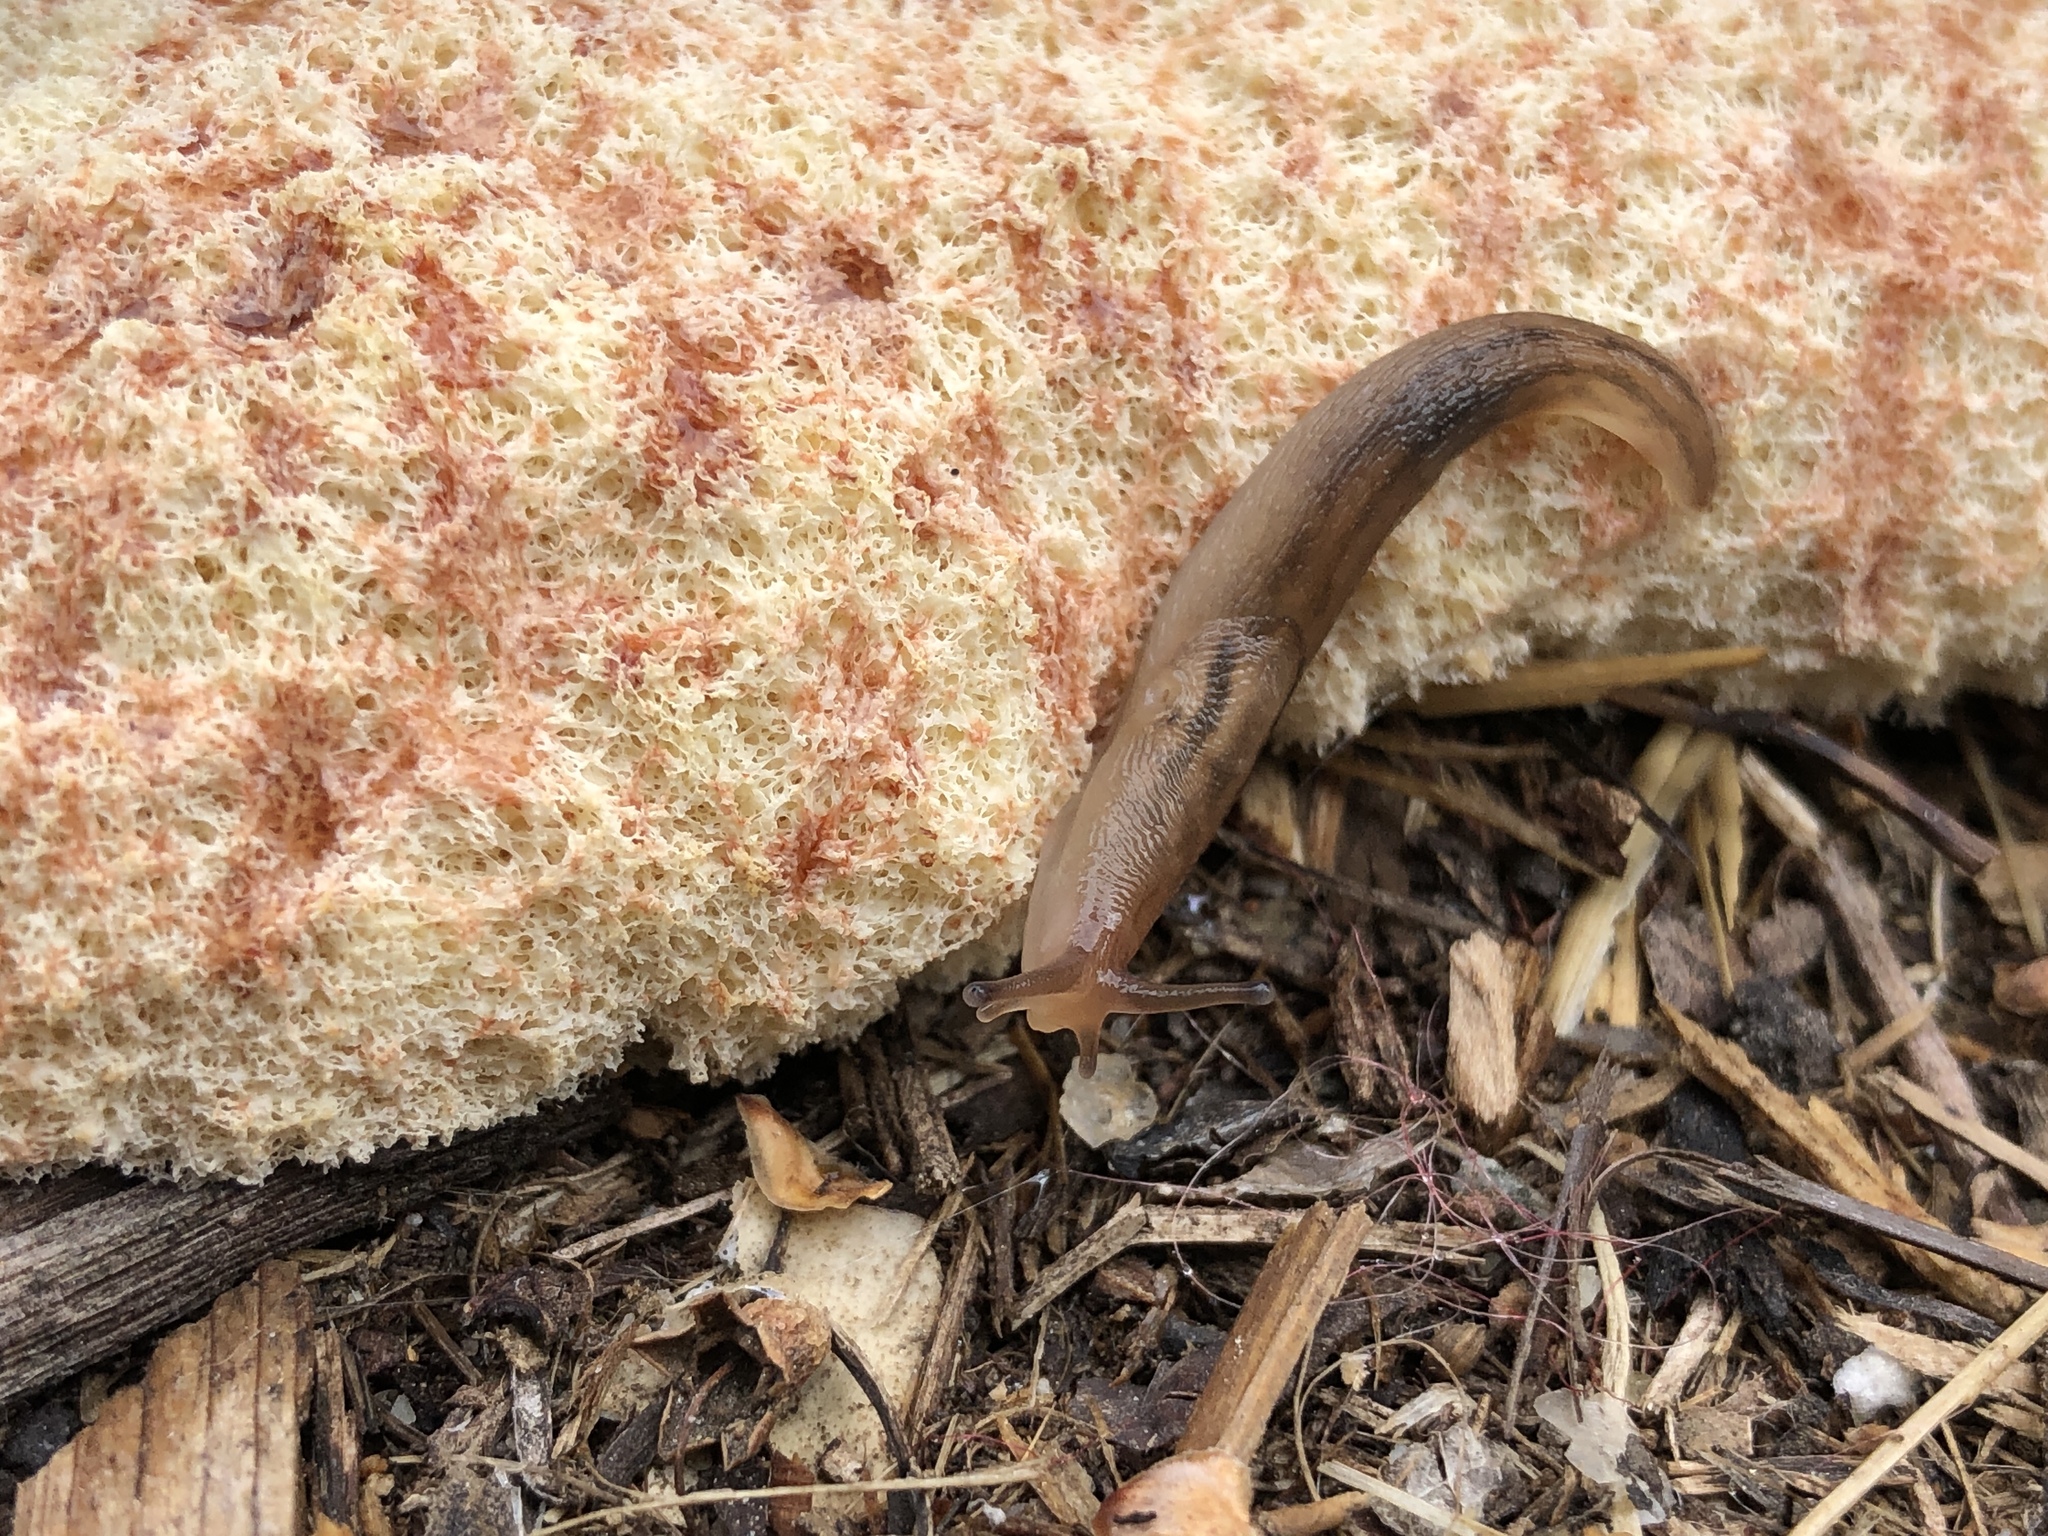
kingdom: Animalia
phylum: Mollusca
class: Gastropoda
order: Stylommatophora
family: Limacidae
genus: Ambigolimax
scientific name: Ambigolimax
